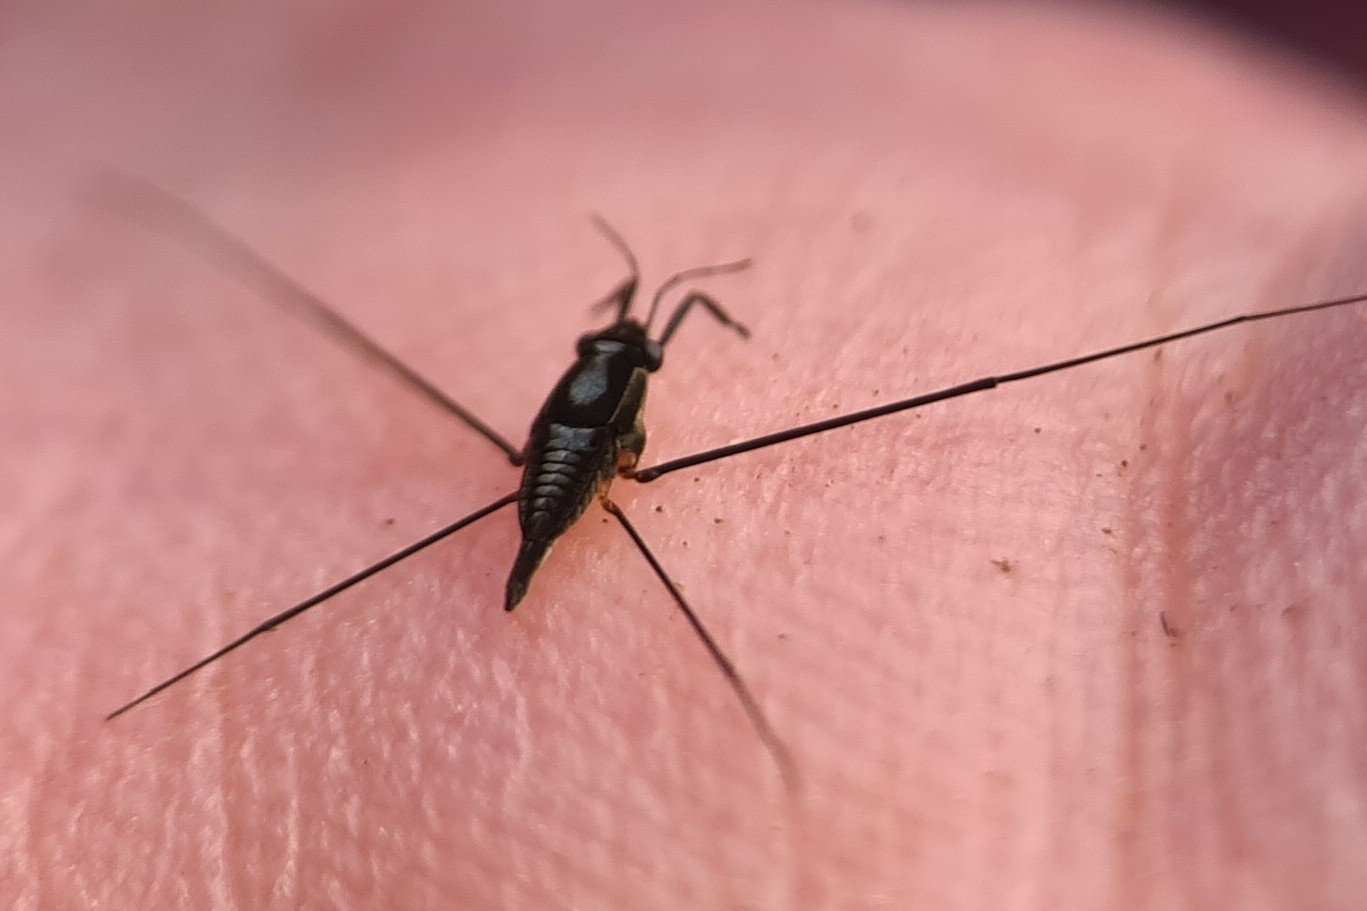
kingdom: Animalia
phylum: Arthropoda
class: Insecta
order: Hemiptera
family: Gerridae
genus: Rhagadotarsus
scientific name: Rhagadotarsus anomalus
